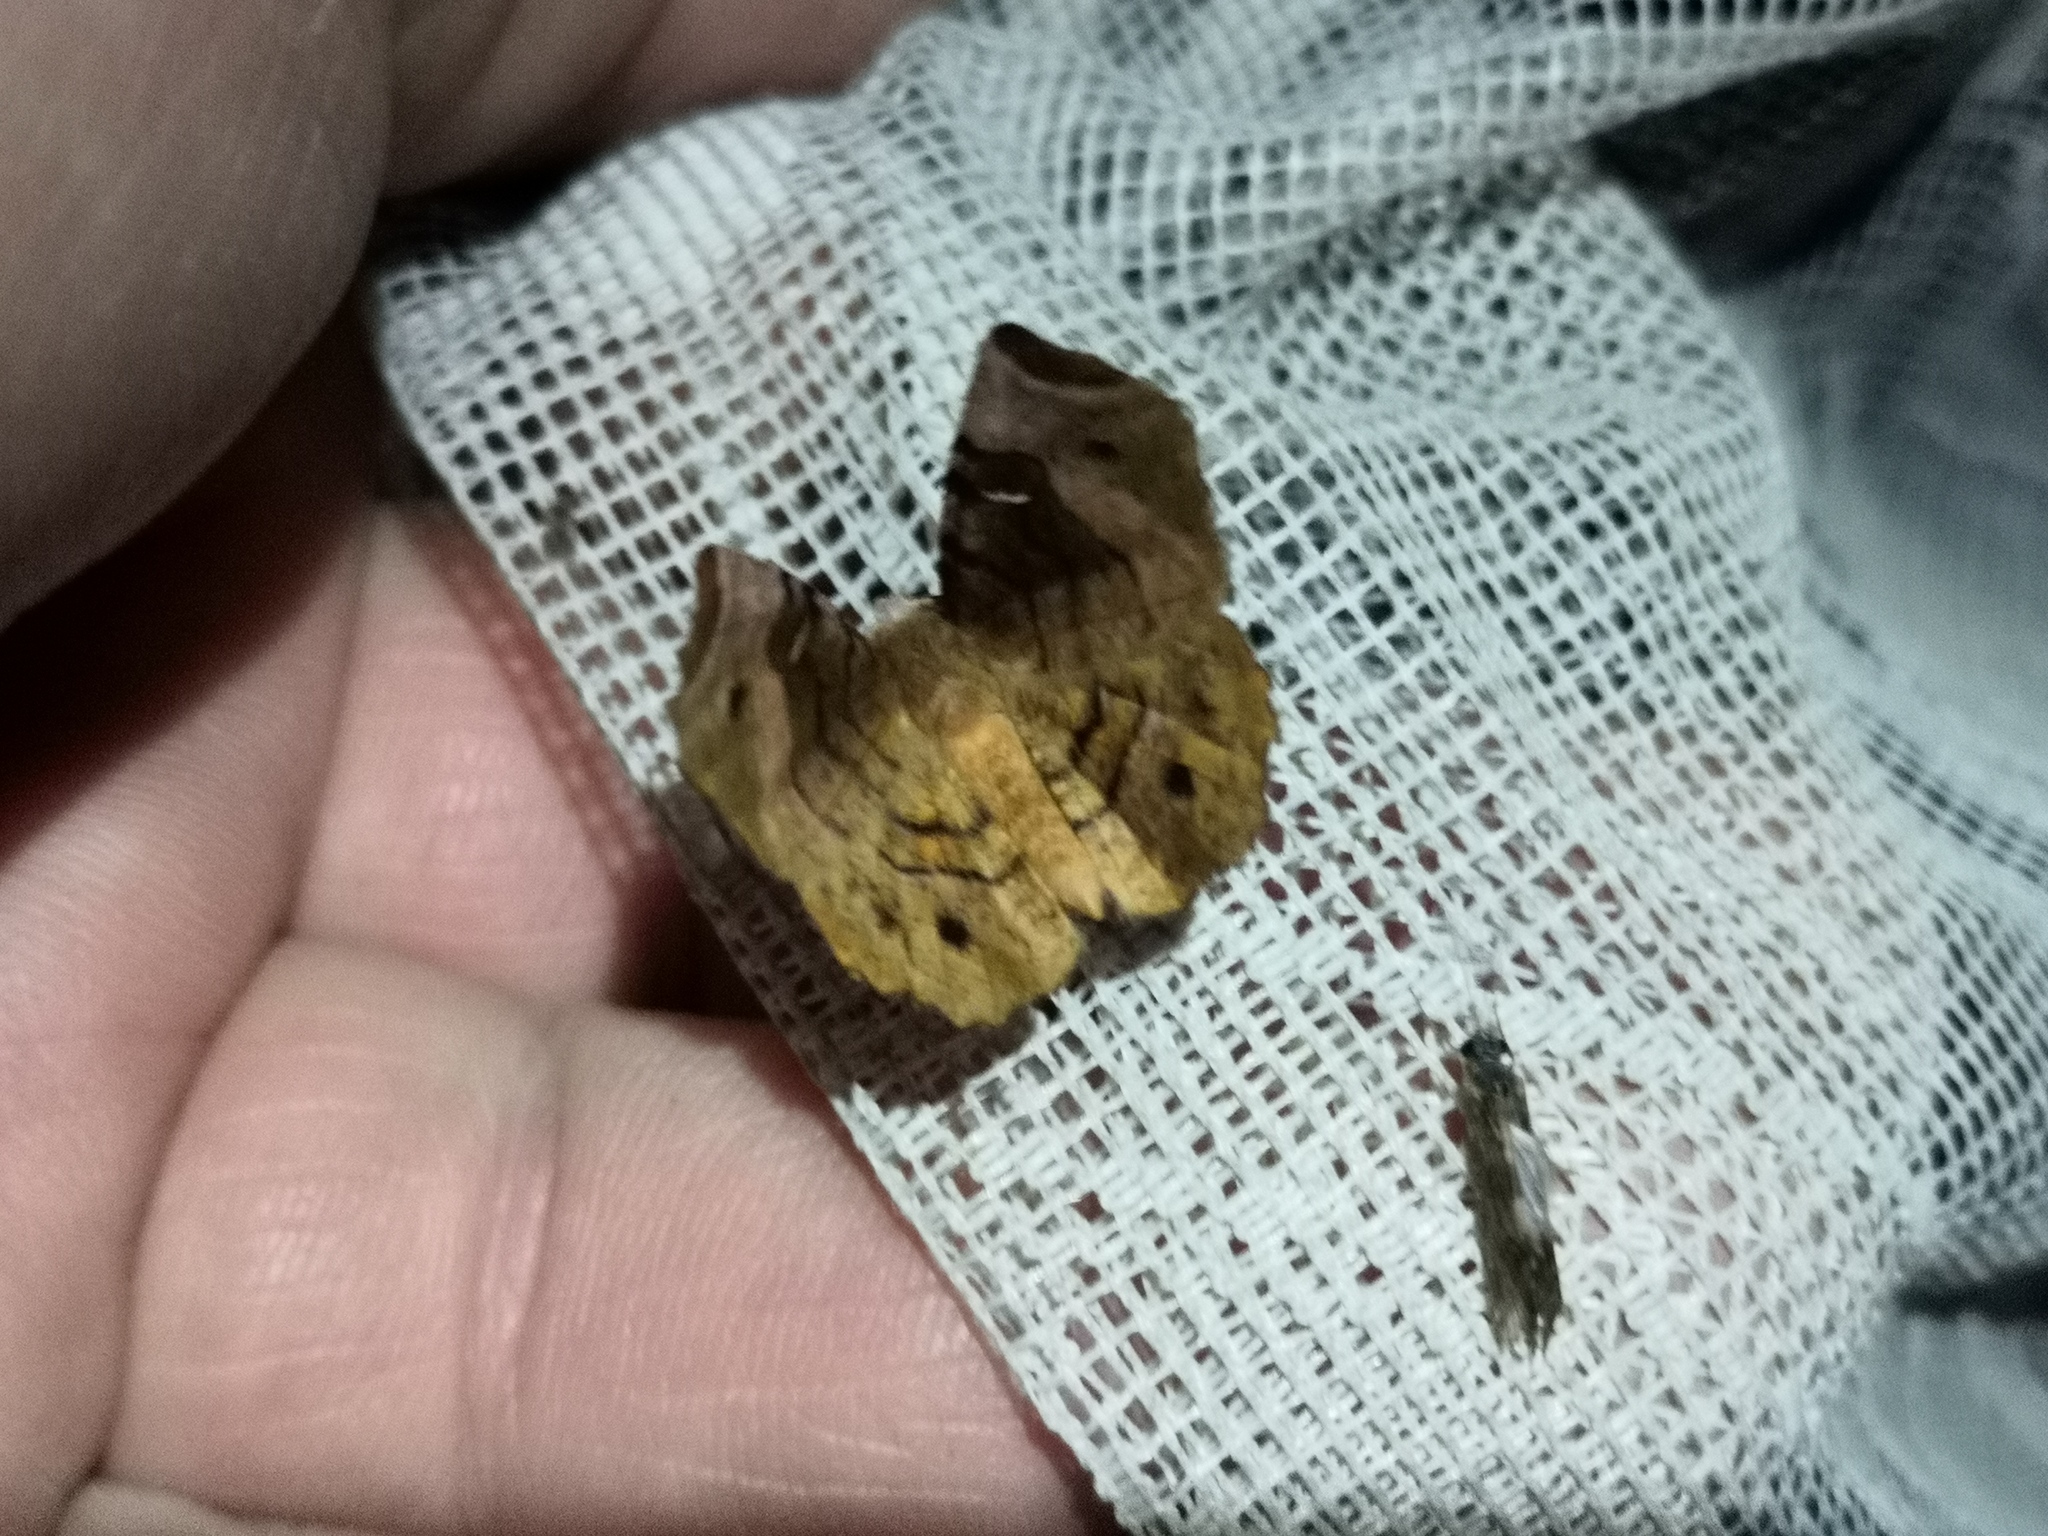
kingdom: Animalia
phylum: Arthropoda
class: Insecta
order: Lepidoptera
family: Geometridae
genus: Selenia
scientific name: Selenia tetralunaria
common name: Purple thorn
